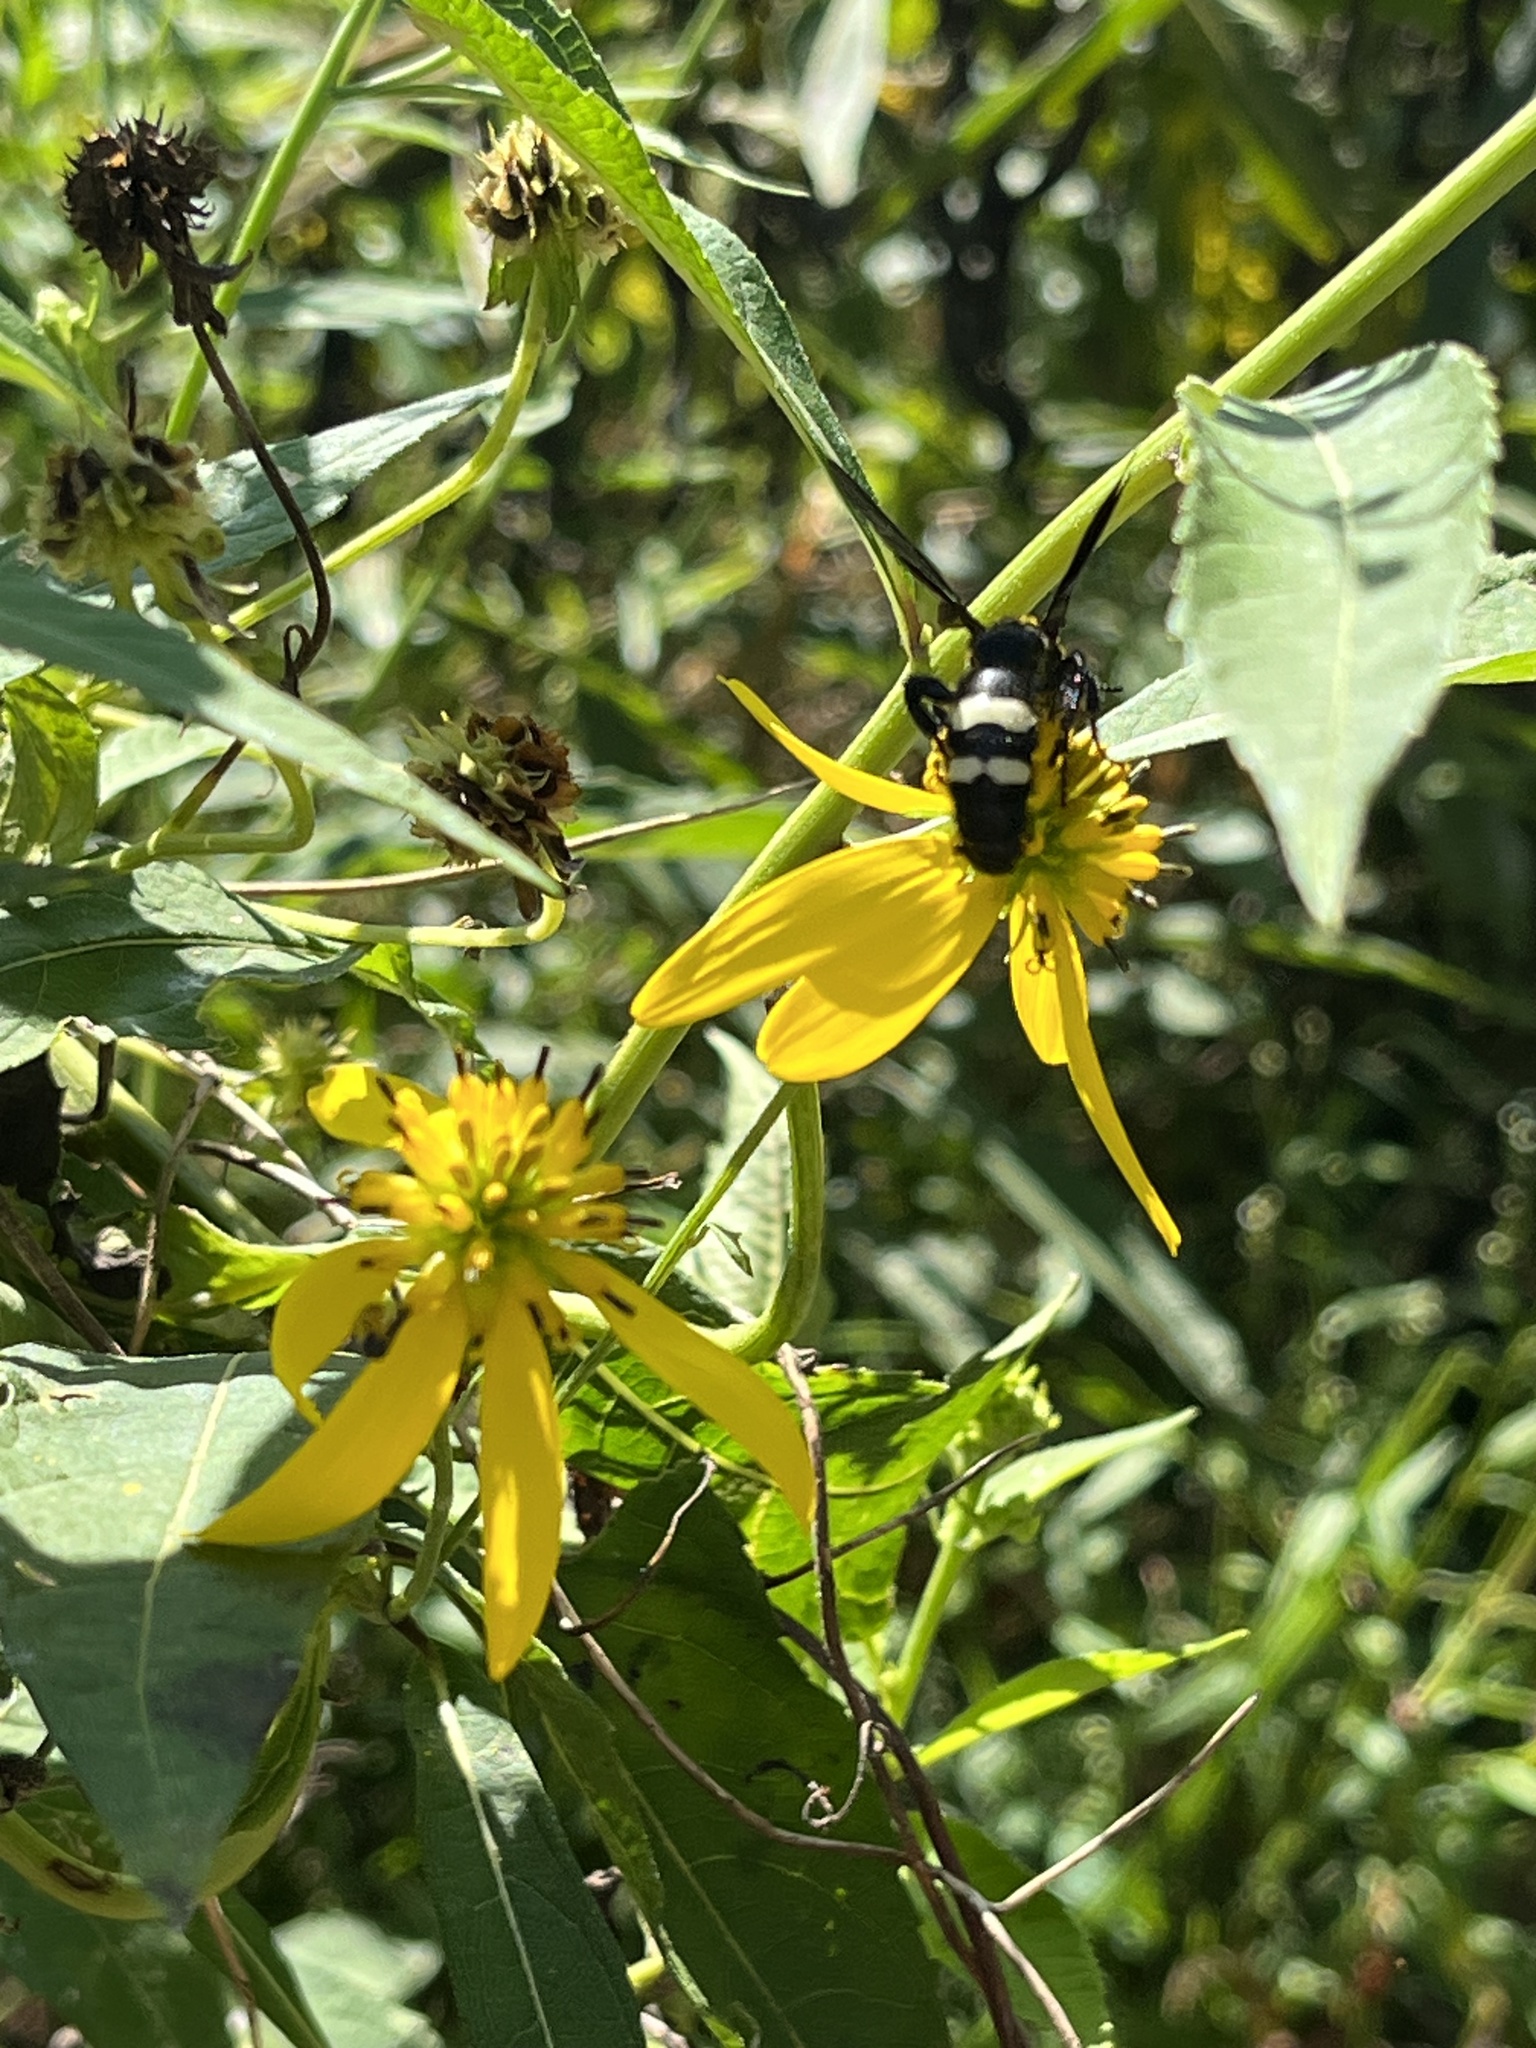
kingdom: Animalia
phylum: Arthropoda
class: Insecta
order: Hymenoptera
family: Scoliidae
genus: Scolia
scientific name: Scolia bicincta
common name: Double-banded scoliid wasp
